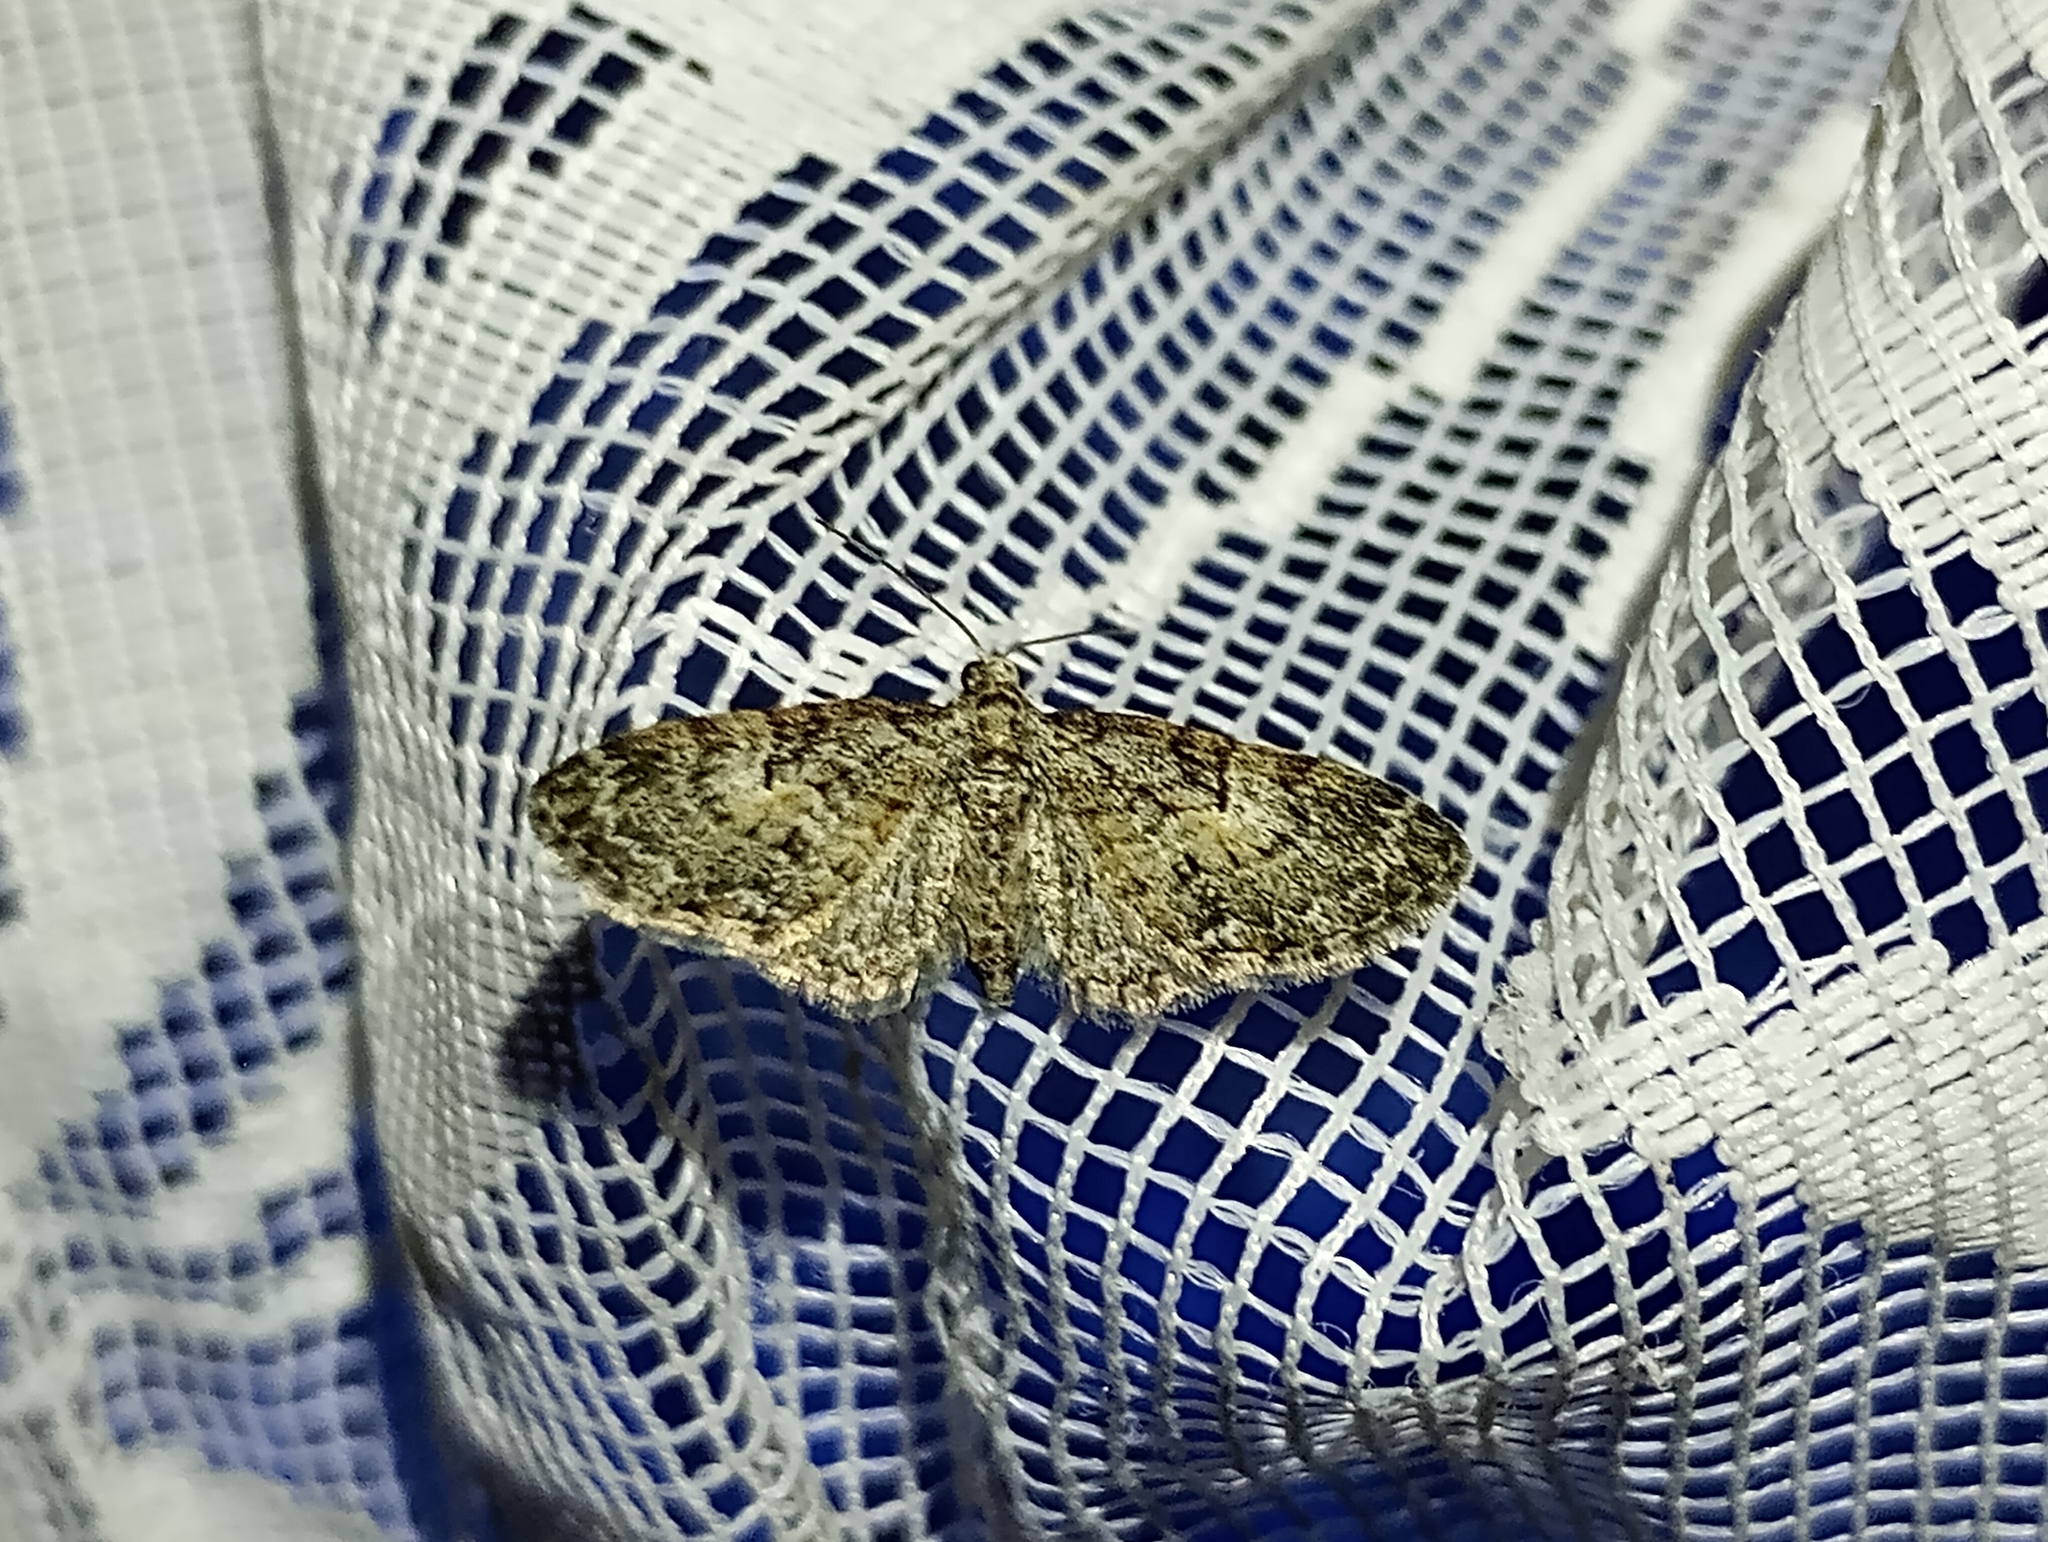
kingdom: Animalia
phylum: Arthropoda
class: Insecta
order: Lepidoptera
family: Geometridae
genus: Eupithecia
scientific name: Eupithecia dodoneata
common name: Oak-tree pug
